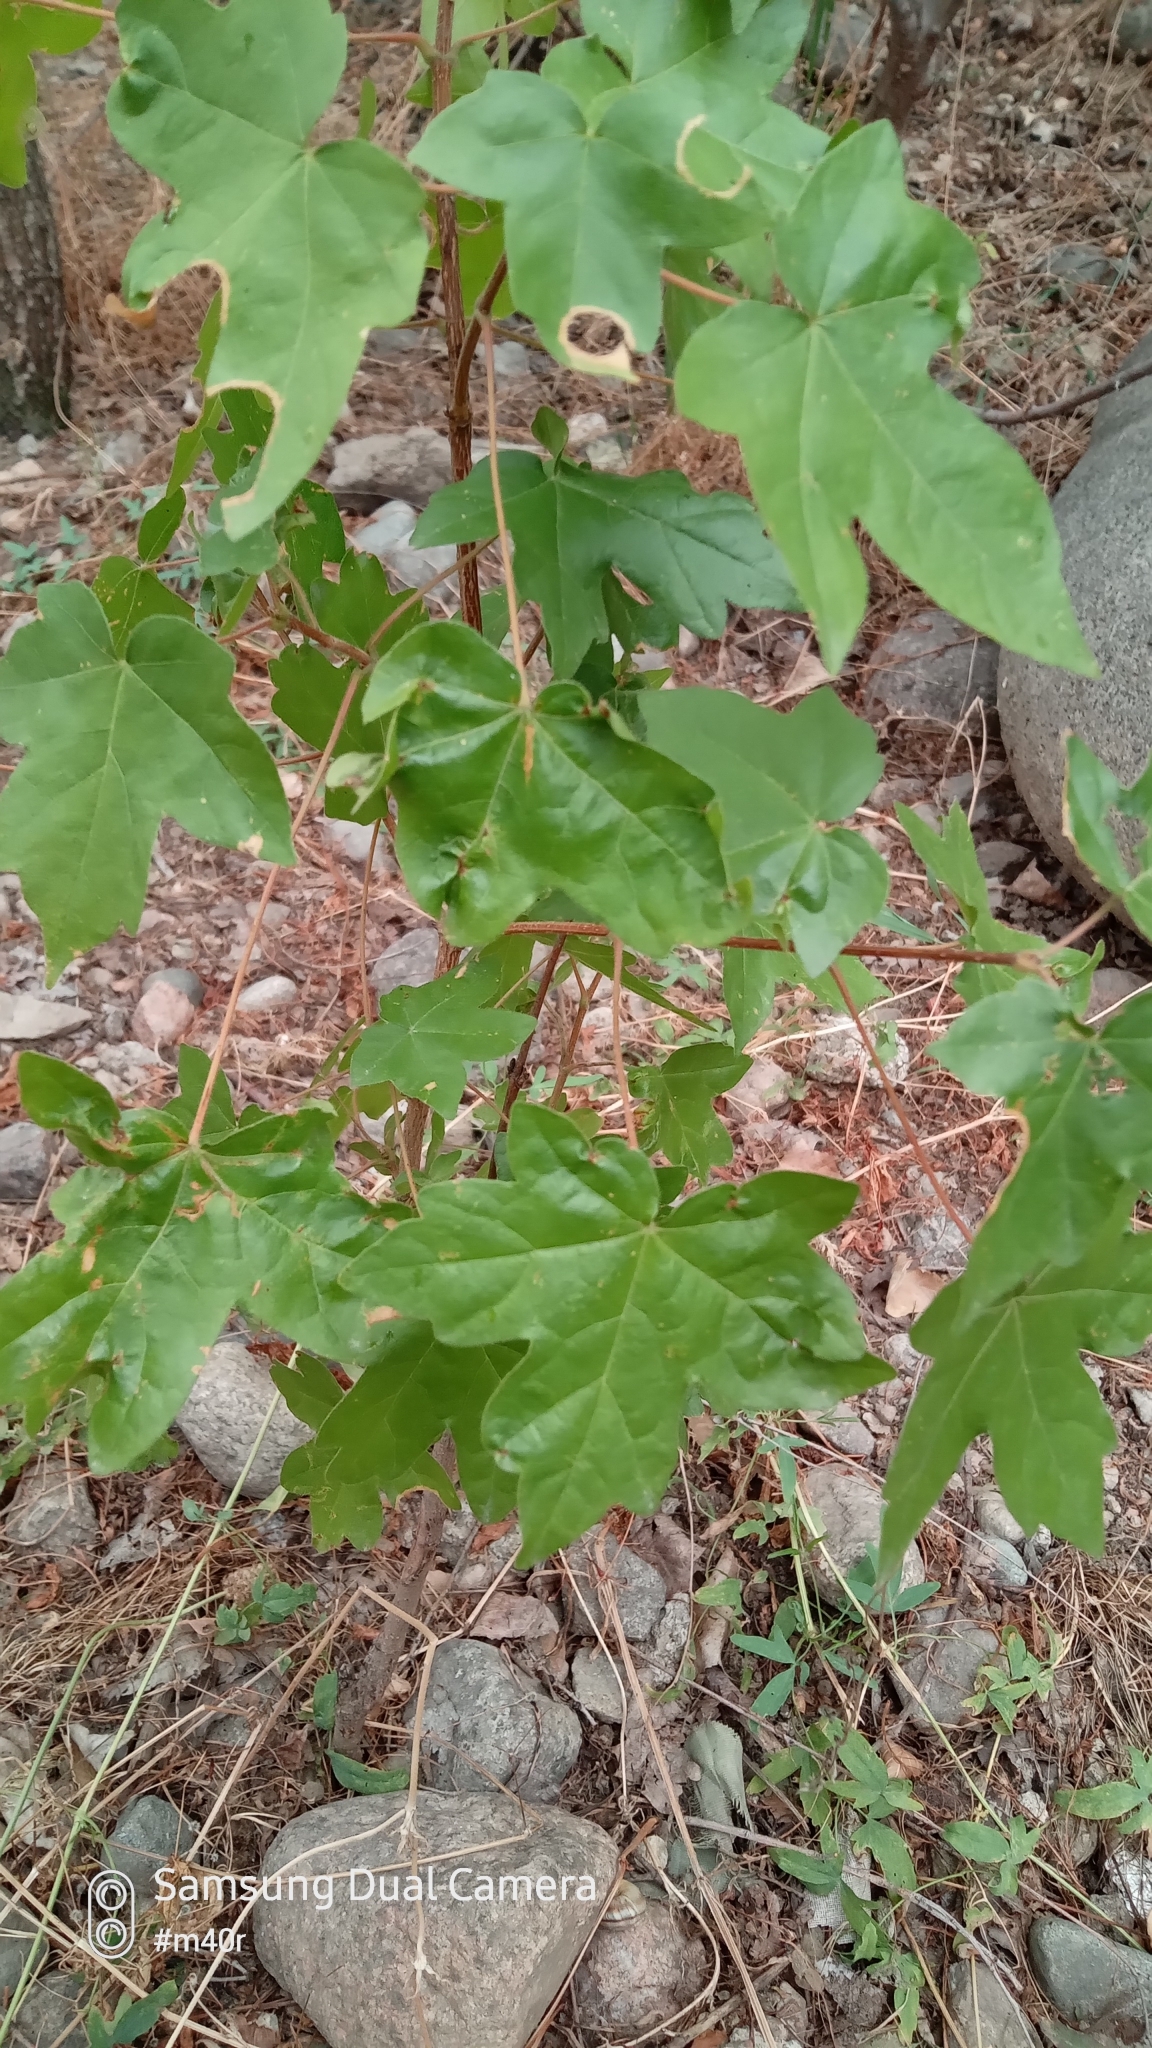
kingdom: Plantae
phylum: Tracheophyta
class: Magnoliopsida
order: Sapindales
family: Sapindaceae
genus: Acer
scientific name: Acer campestre
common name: Field maple
